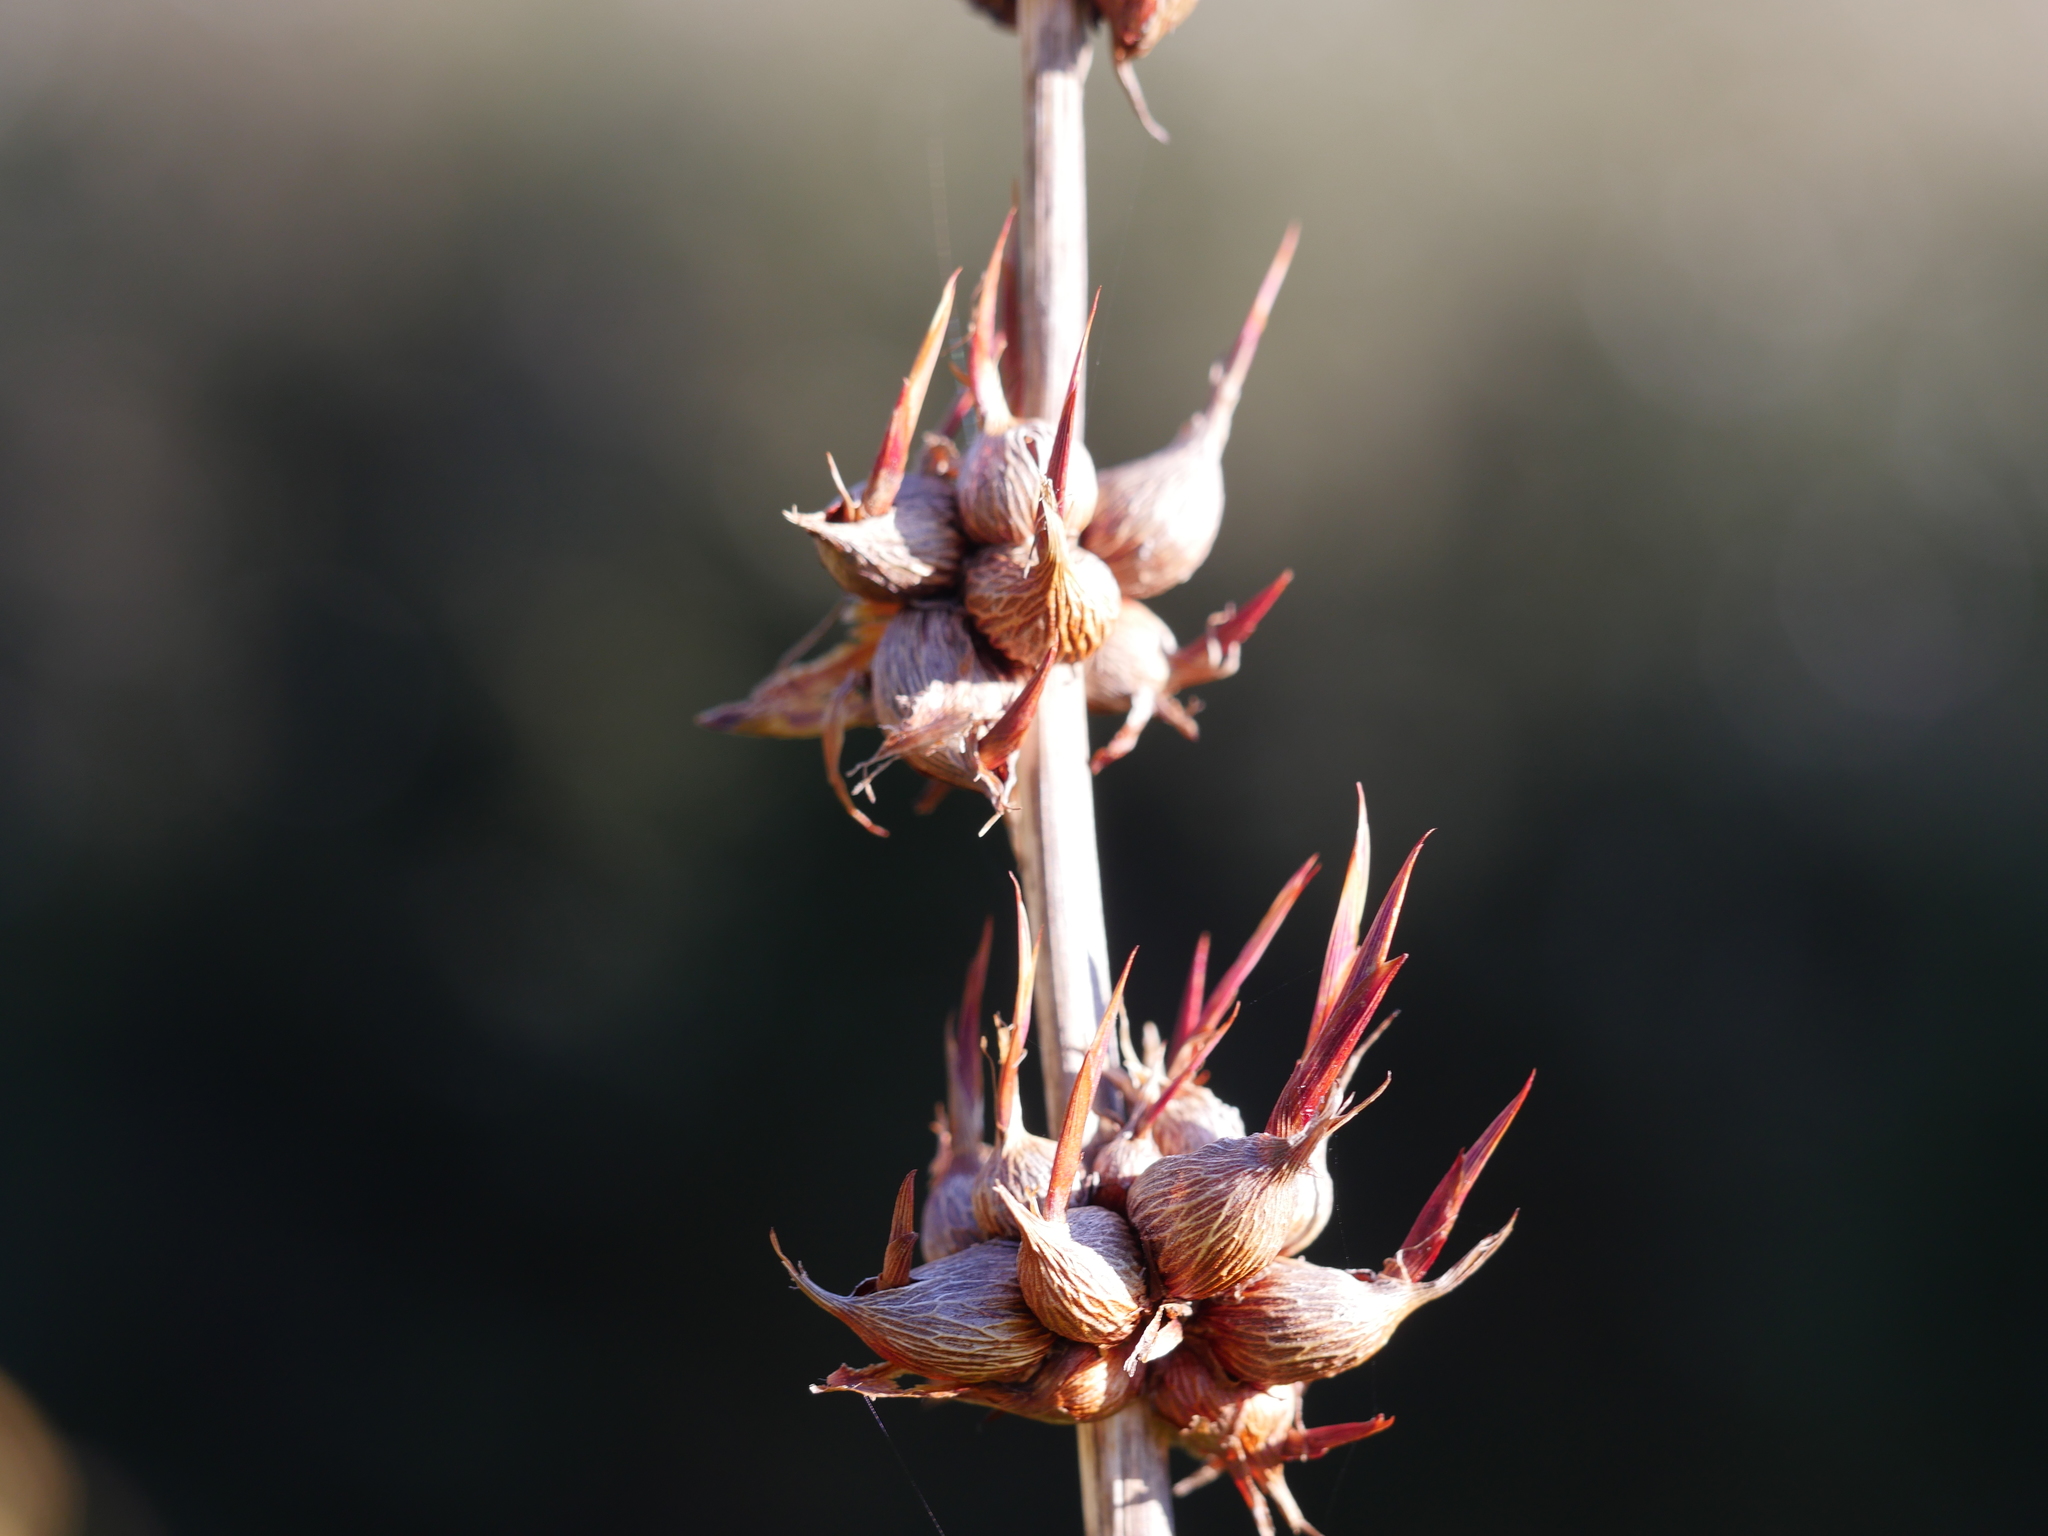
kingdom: Plantae
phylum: Tracheophyta
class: Liliopsida
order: Asparagales
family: Iridaceae
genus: Watsonia
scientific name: Watsonia meriana
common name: Bulbil bugle-lily
